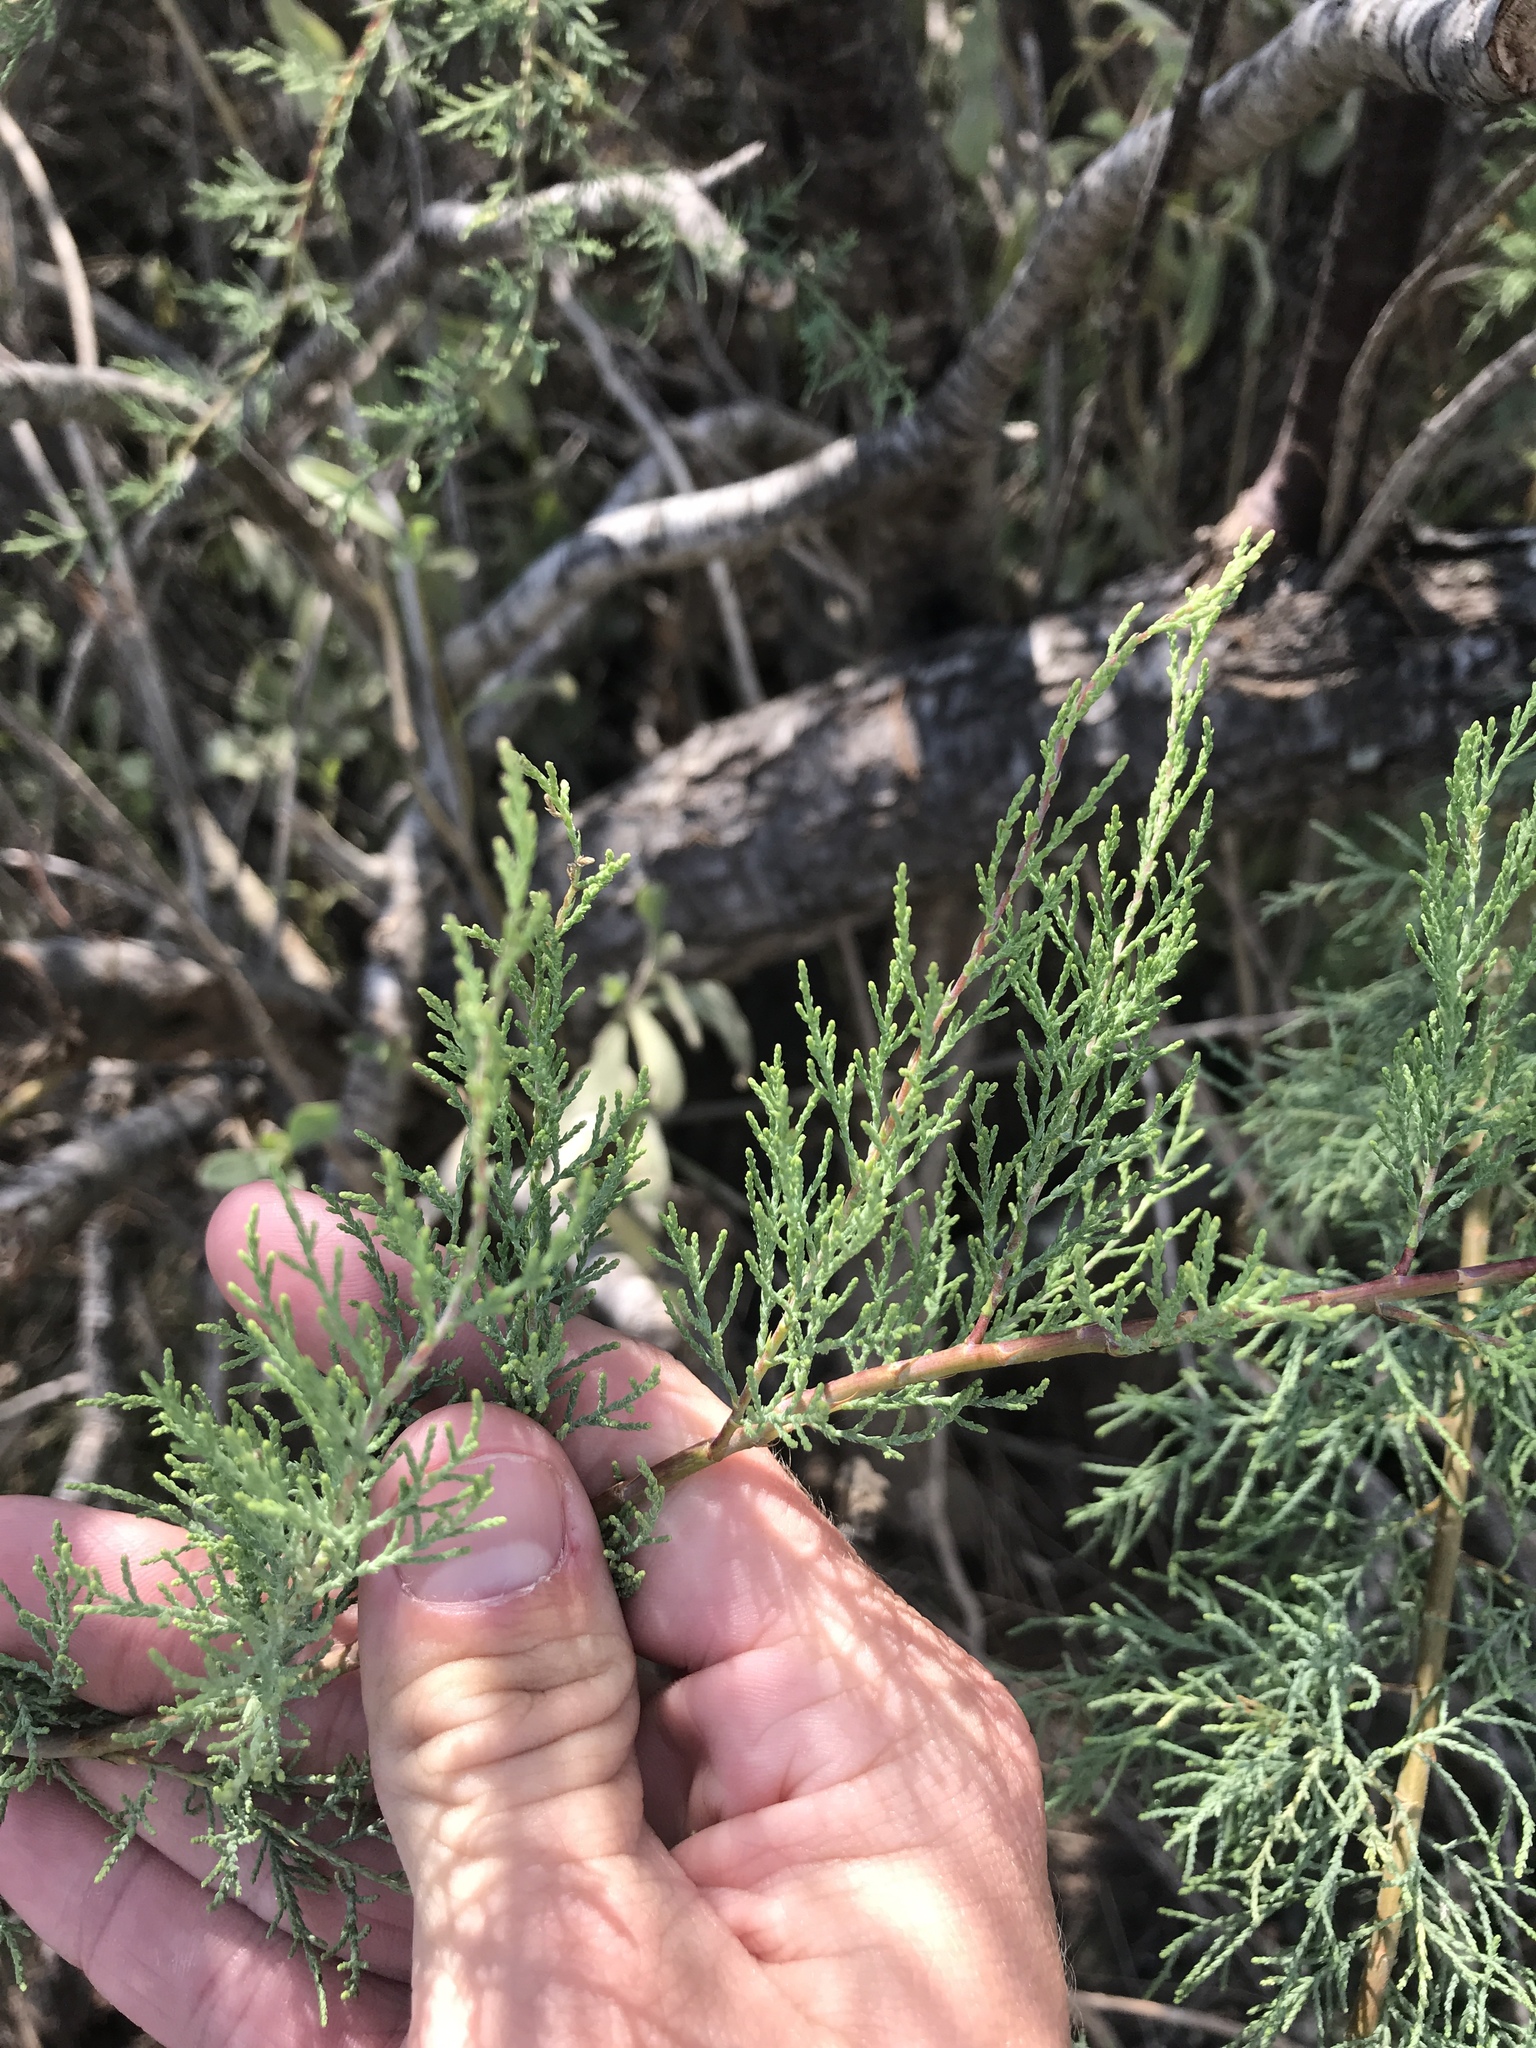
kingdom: Plantae
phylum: Tracheophyta
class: Magnoliopsida
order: Caryophyllales
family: Tamaricaceae
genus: Tamarix
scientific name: Tamarix ramosissima
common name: Pink tamarisk
